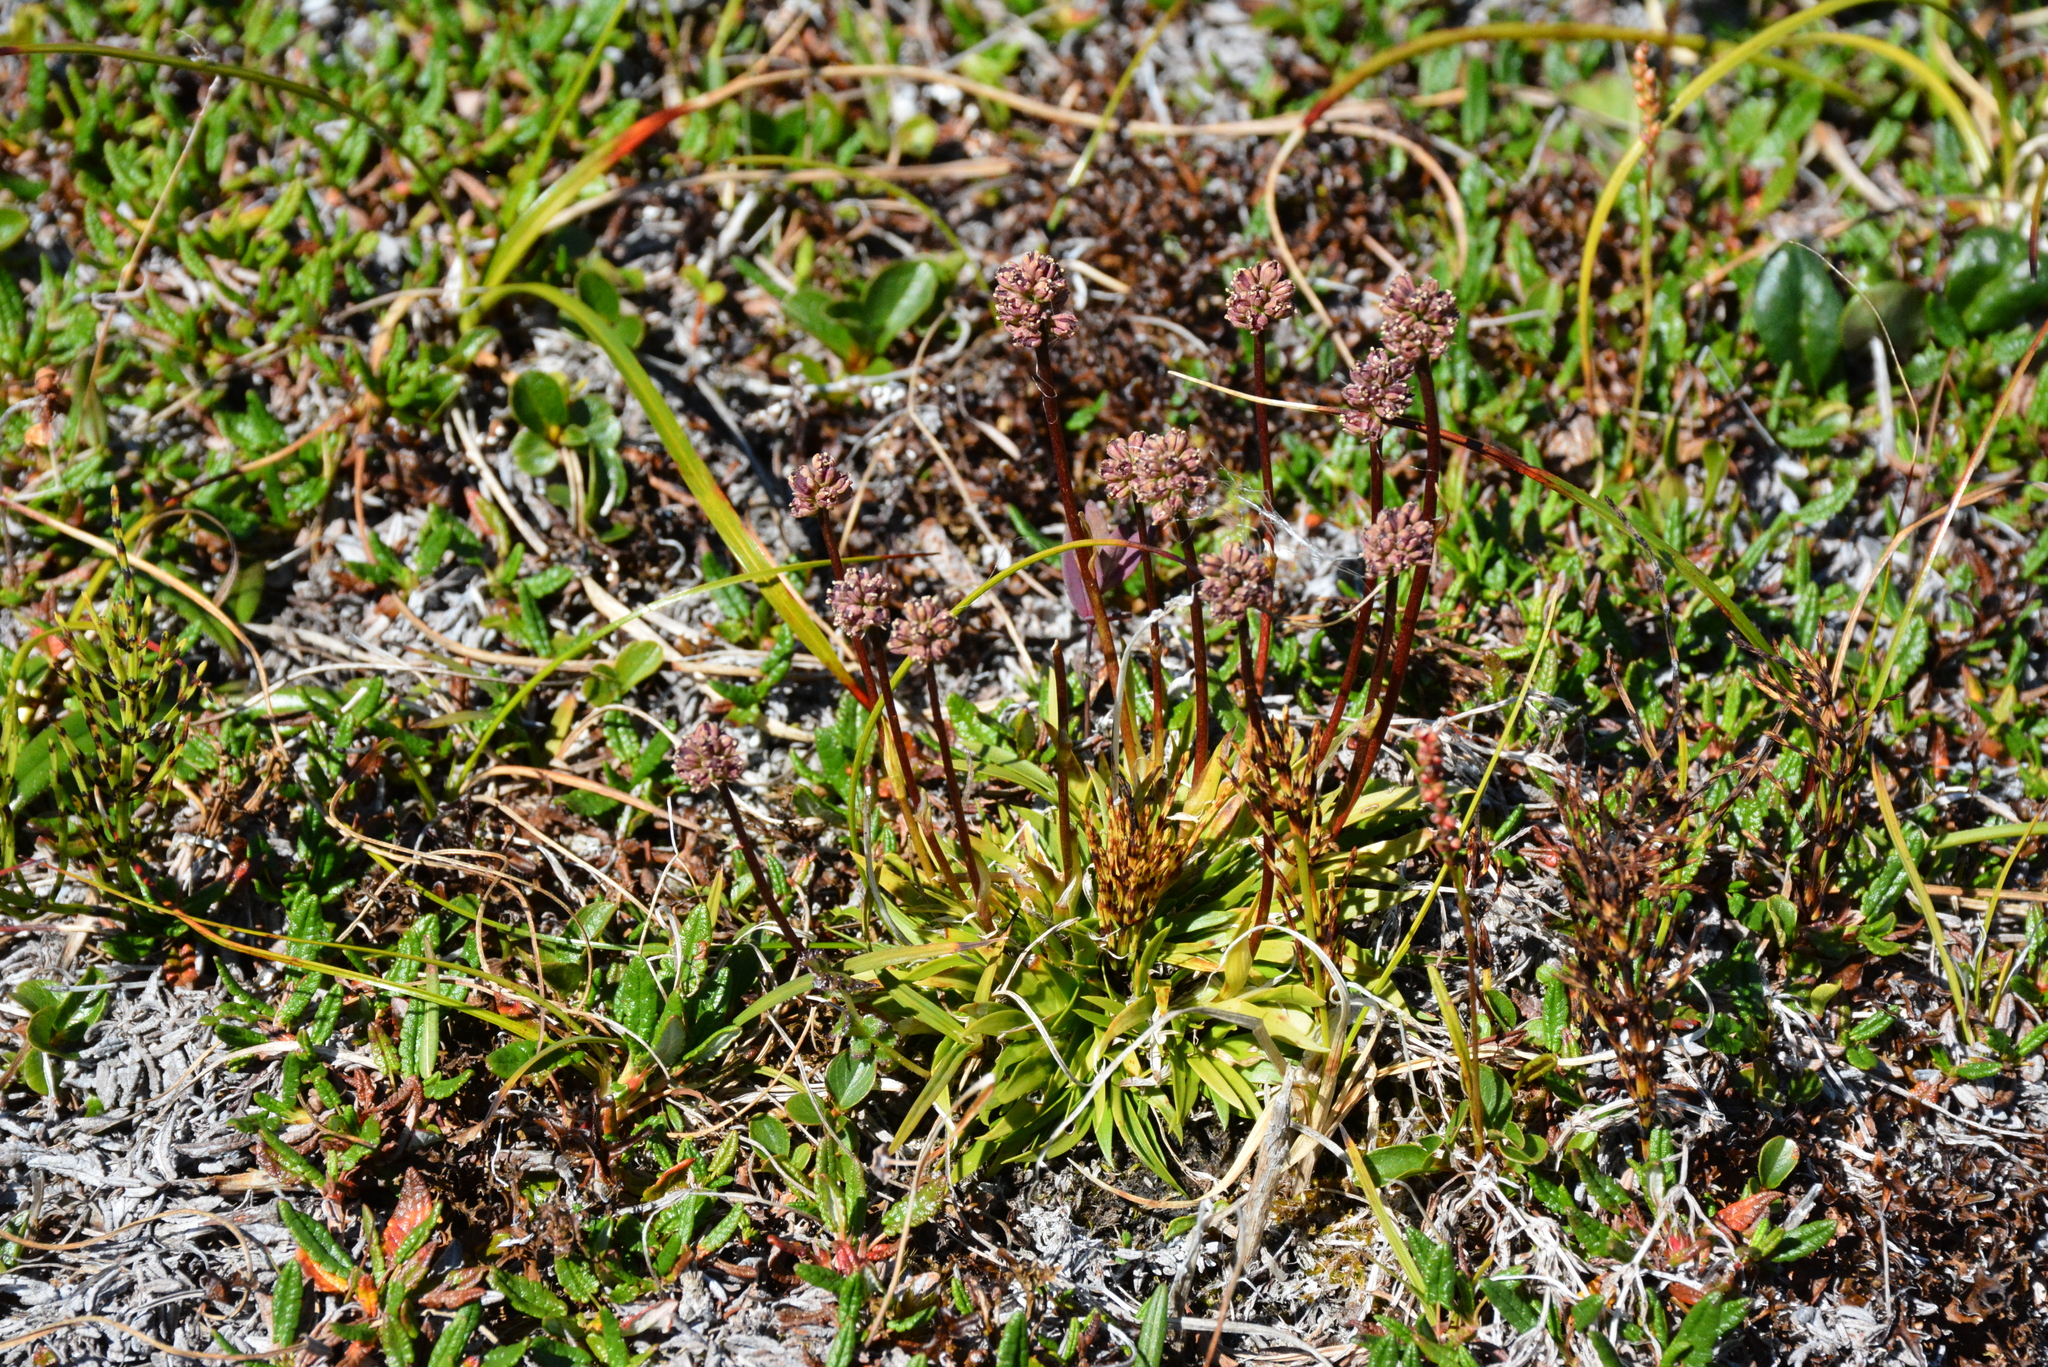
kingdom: Plantae
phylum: Tracheophyta
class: Liliopsida
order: Alismatales
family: Tofieldiaceae
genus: Tofieldia
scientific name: Tofieldia coccinea
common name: Northern false asphodel
